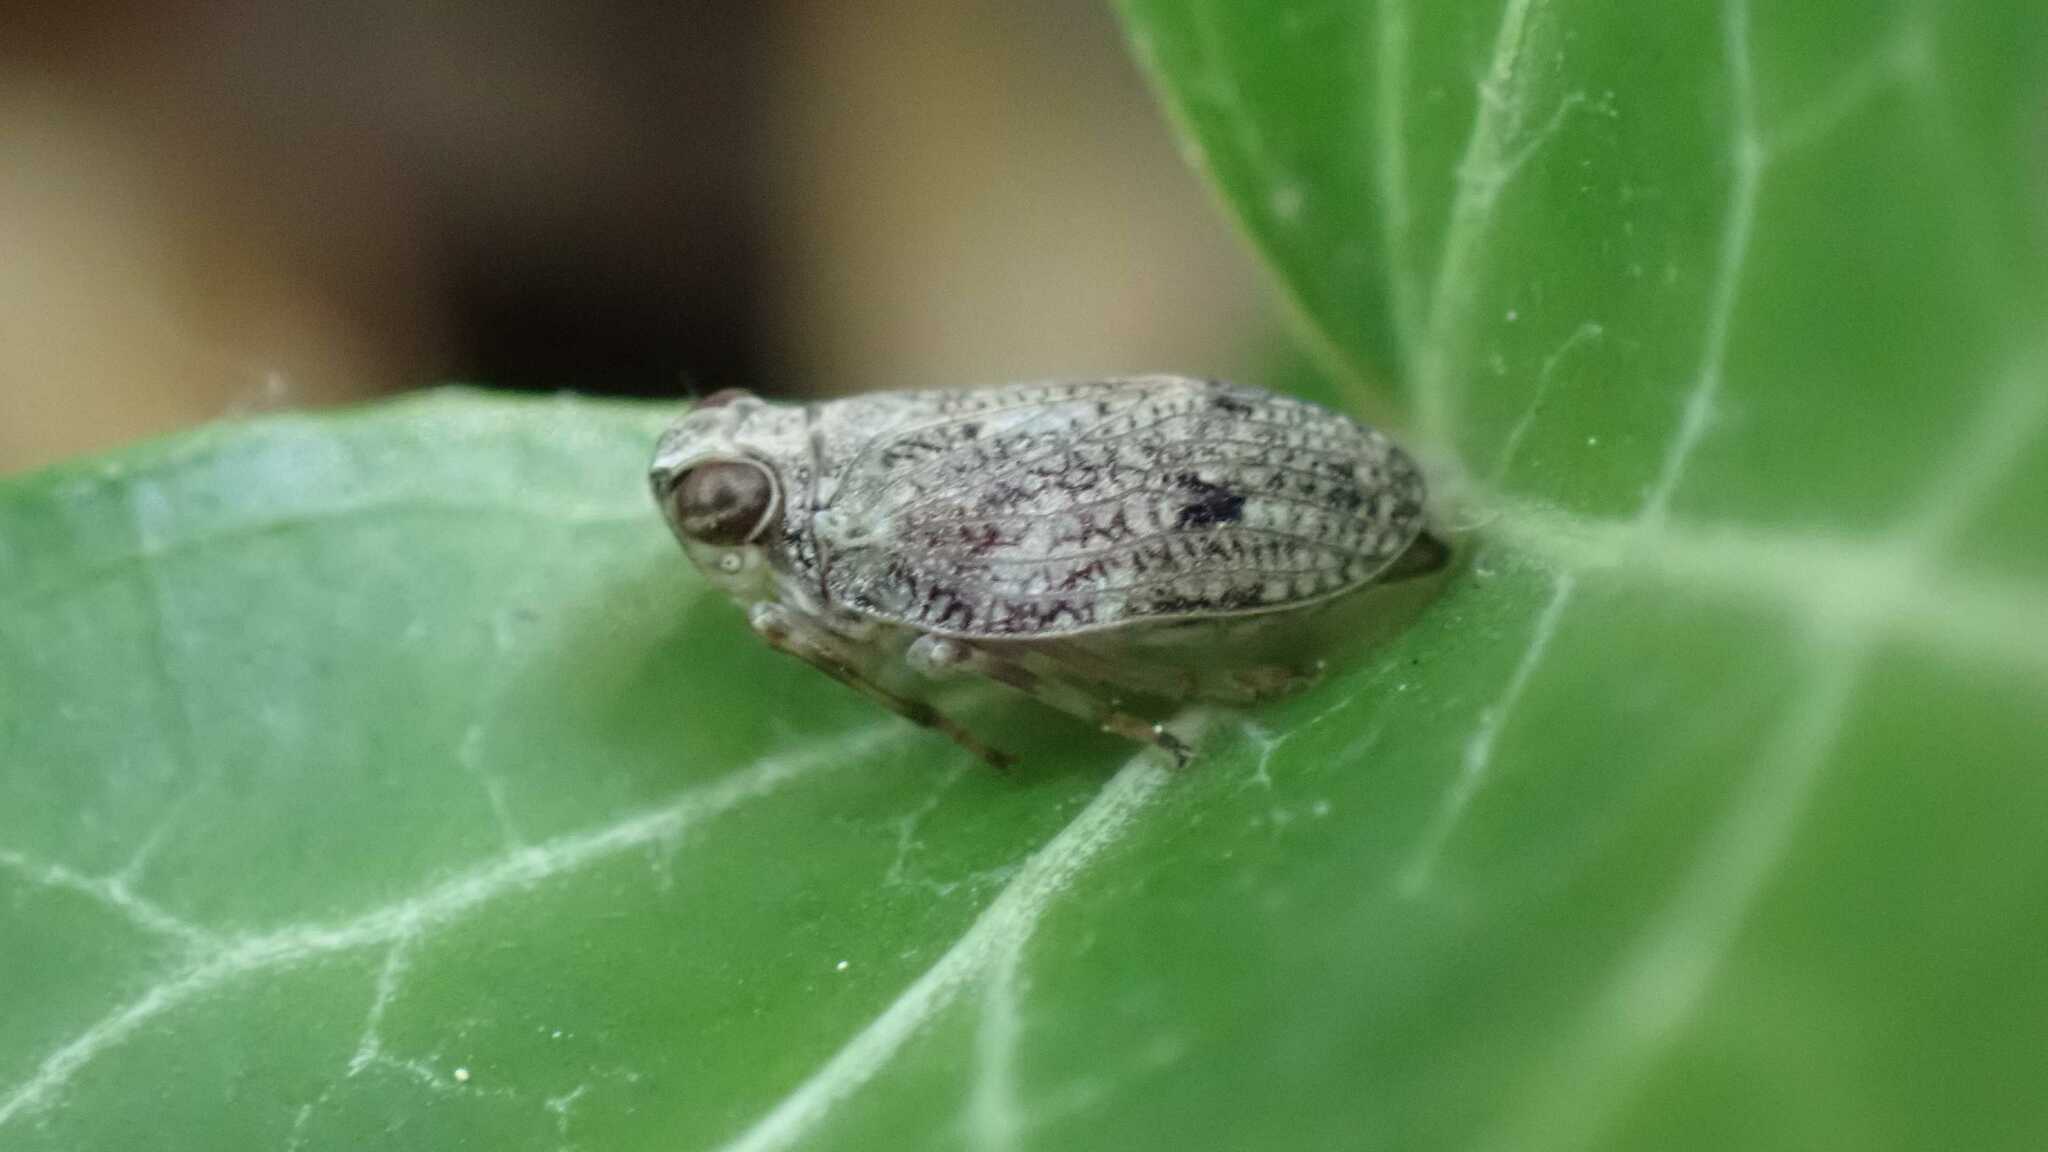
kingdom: Animalia
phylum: Arthropoda
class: Insecta
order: Hemiptera
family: Issidae
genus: Issus
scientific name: Issus coleoptratus
